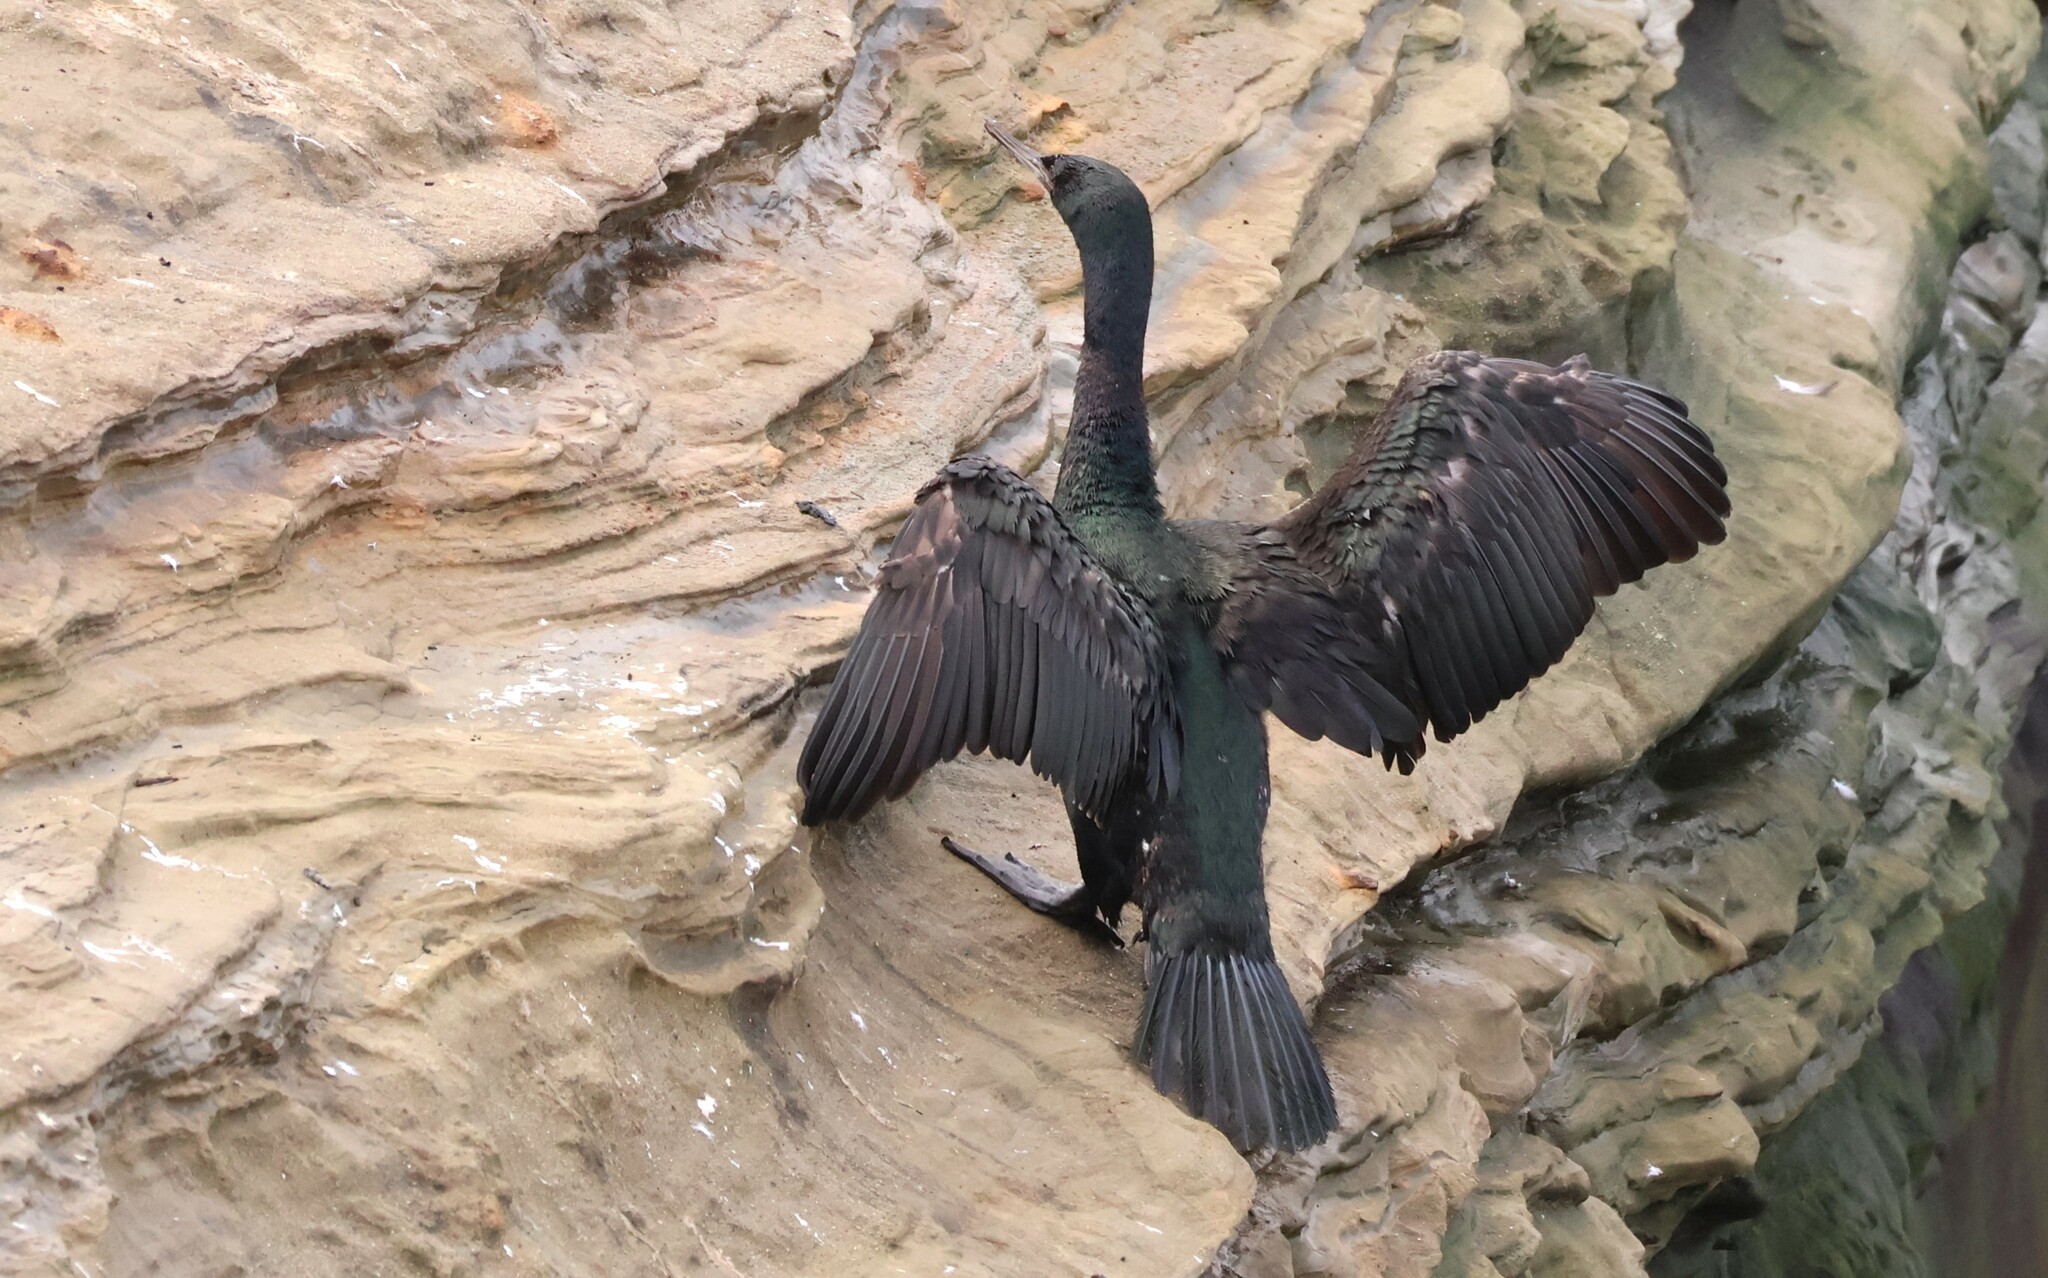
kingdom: Animalia
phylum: Chordata
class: Aves
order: Suliformes
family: Phalacrocoracidae
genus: Phalacrocorax
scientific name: Phalacrocorax pelagicus
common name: Pelagic cormorant
